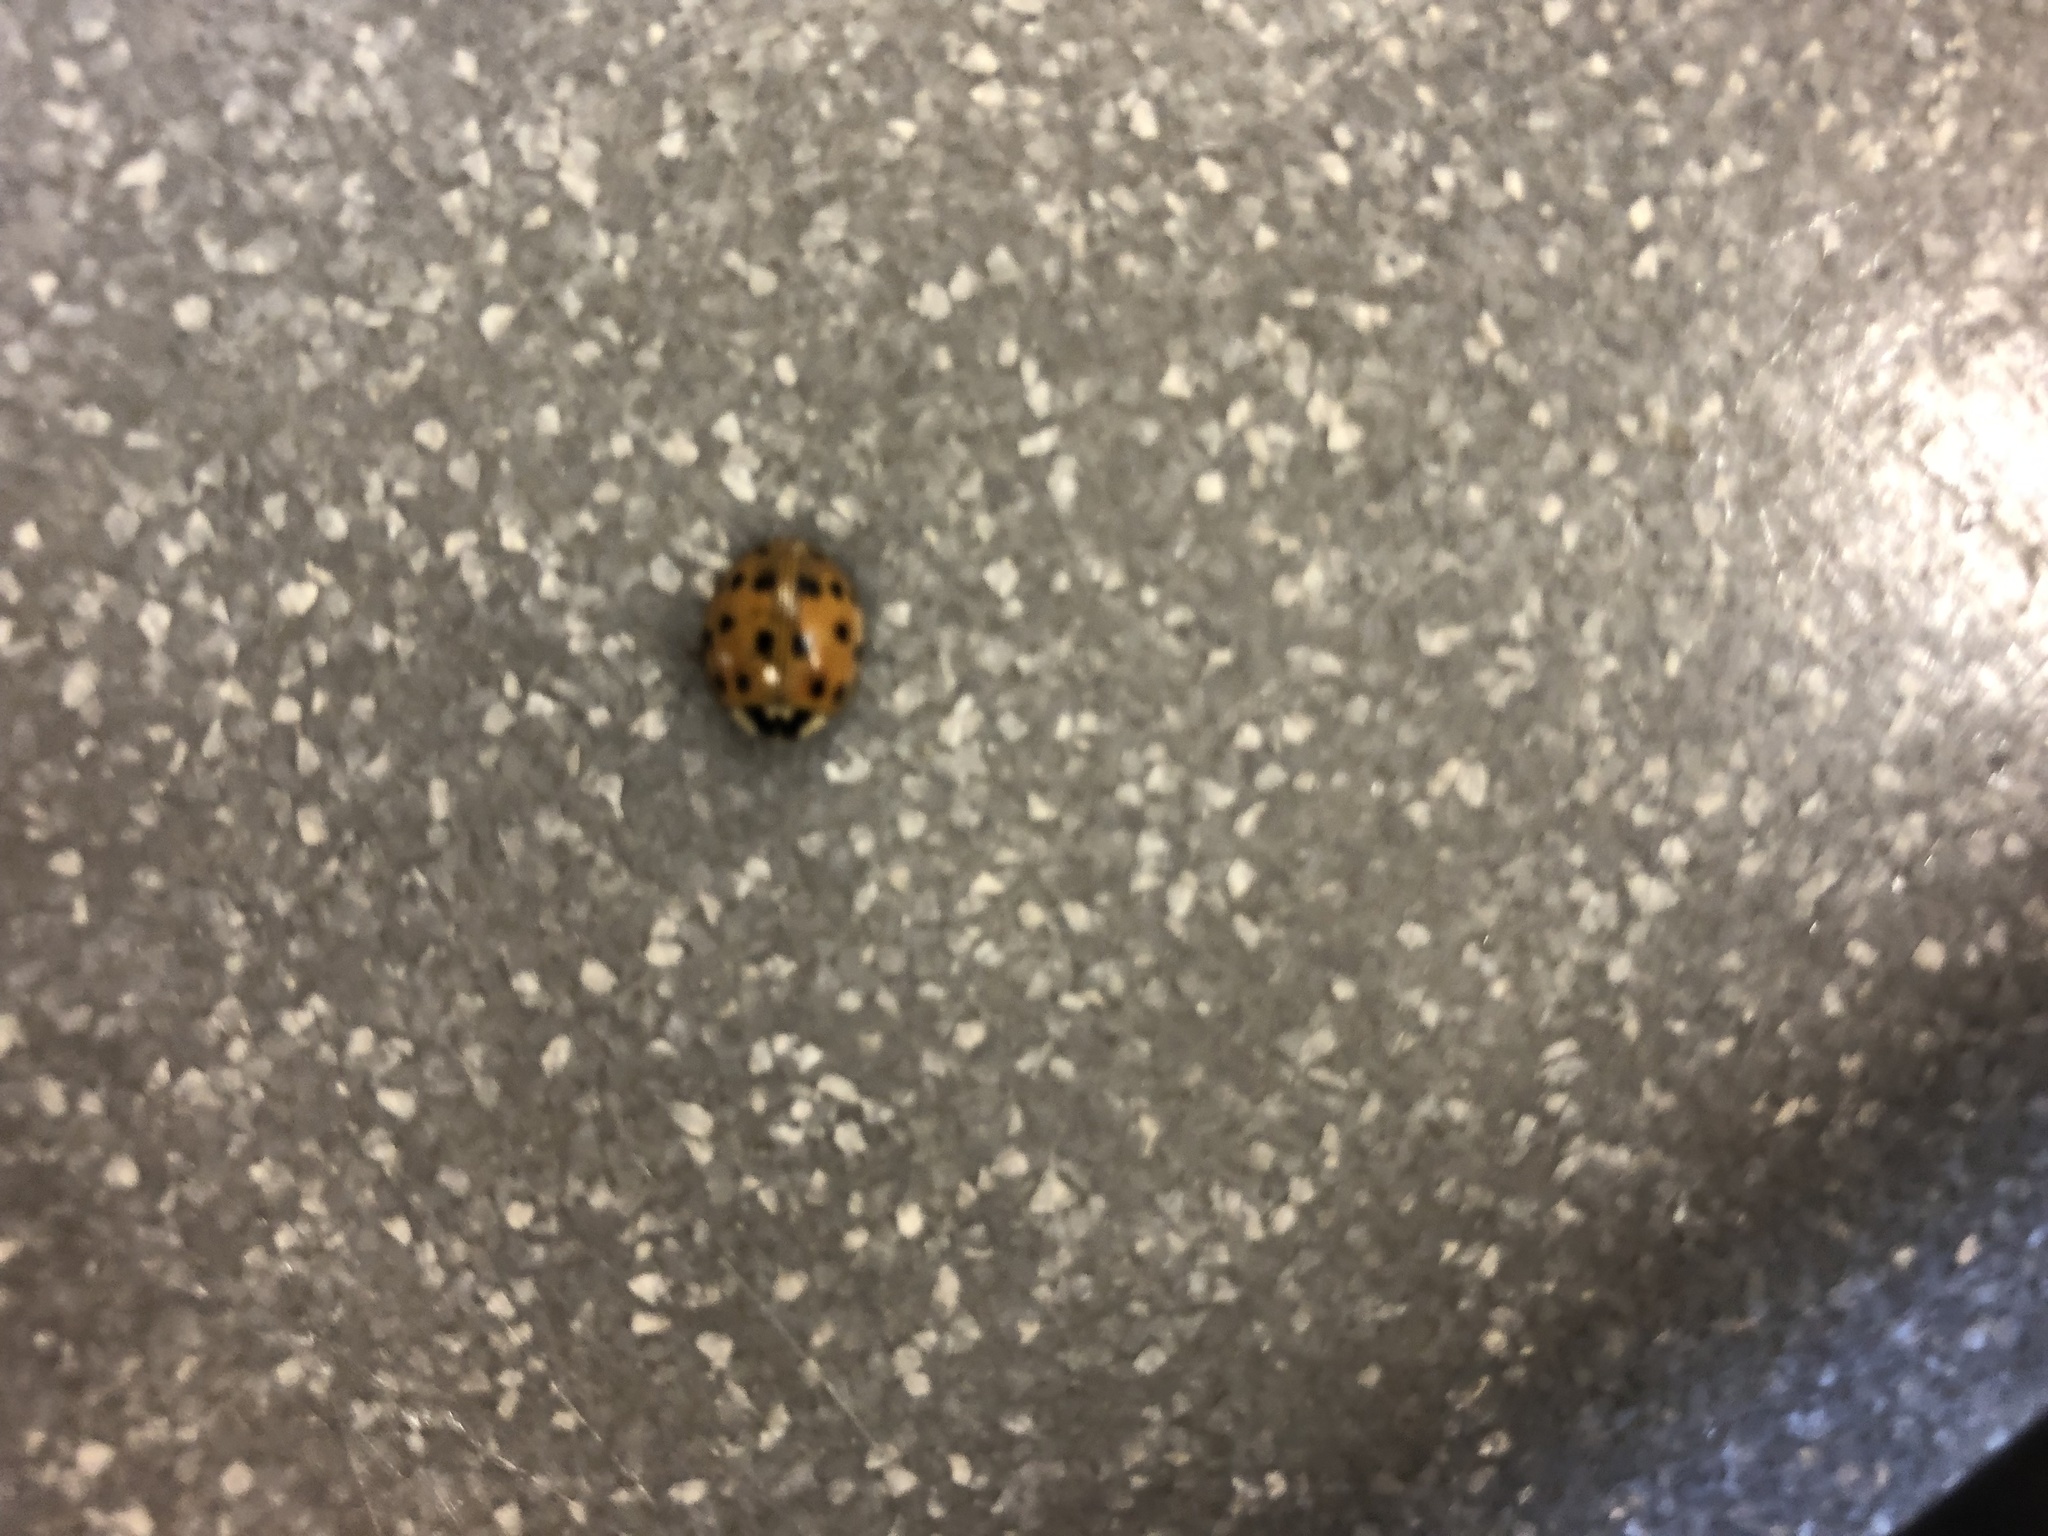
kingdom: Animalia
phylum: Arthropoda
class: Insecta
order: Coleoptera
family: Coccinellidae
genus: Harmonia
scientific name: Harmonia axyridis
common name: Harlequin ladybird
